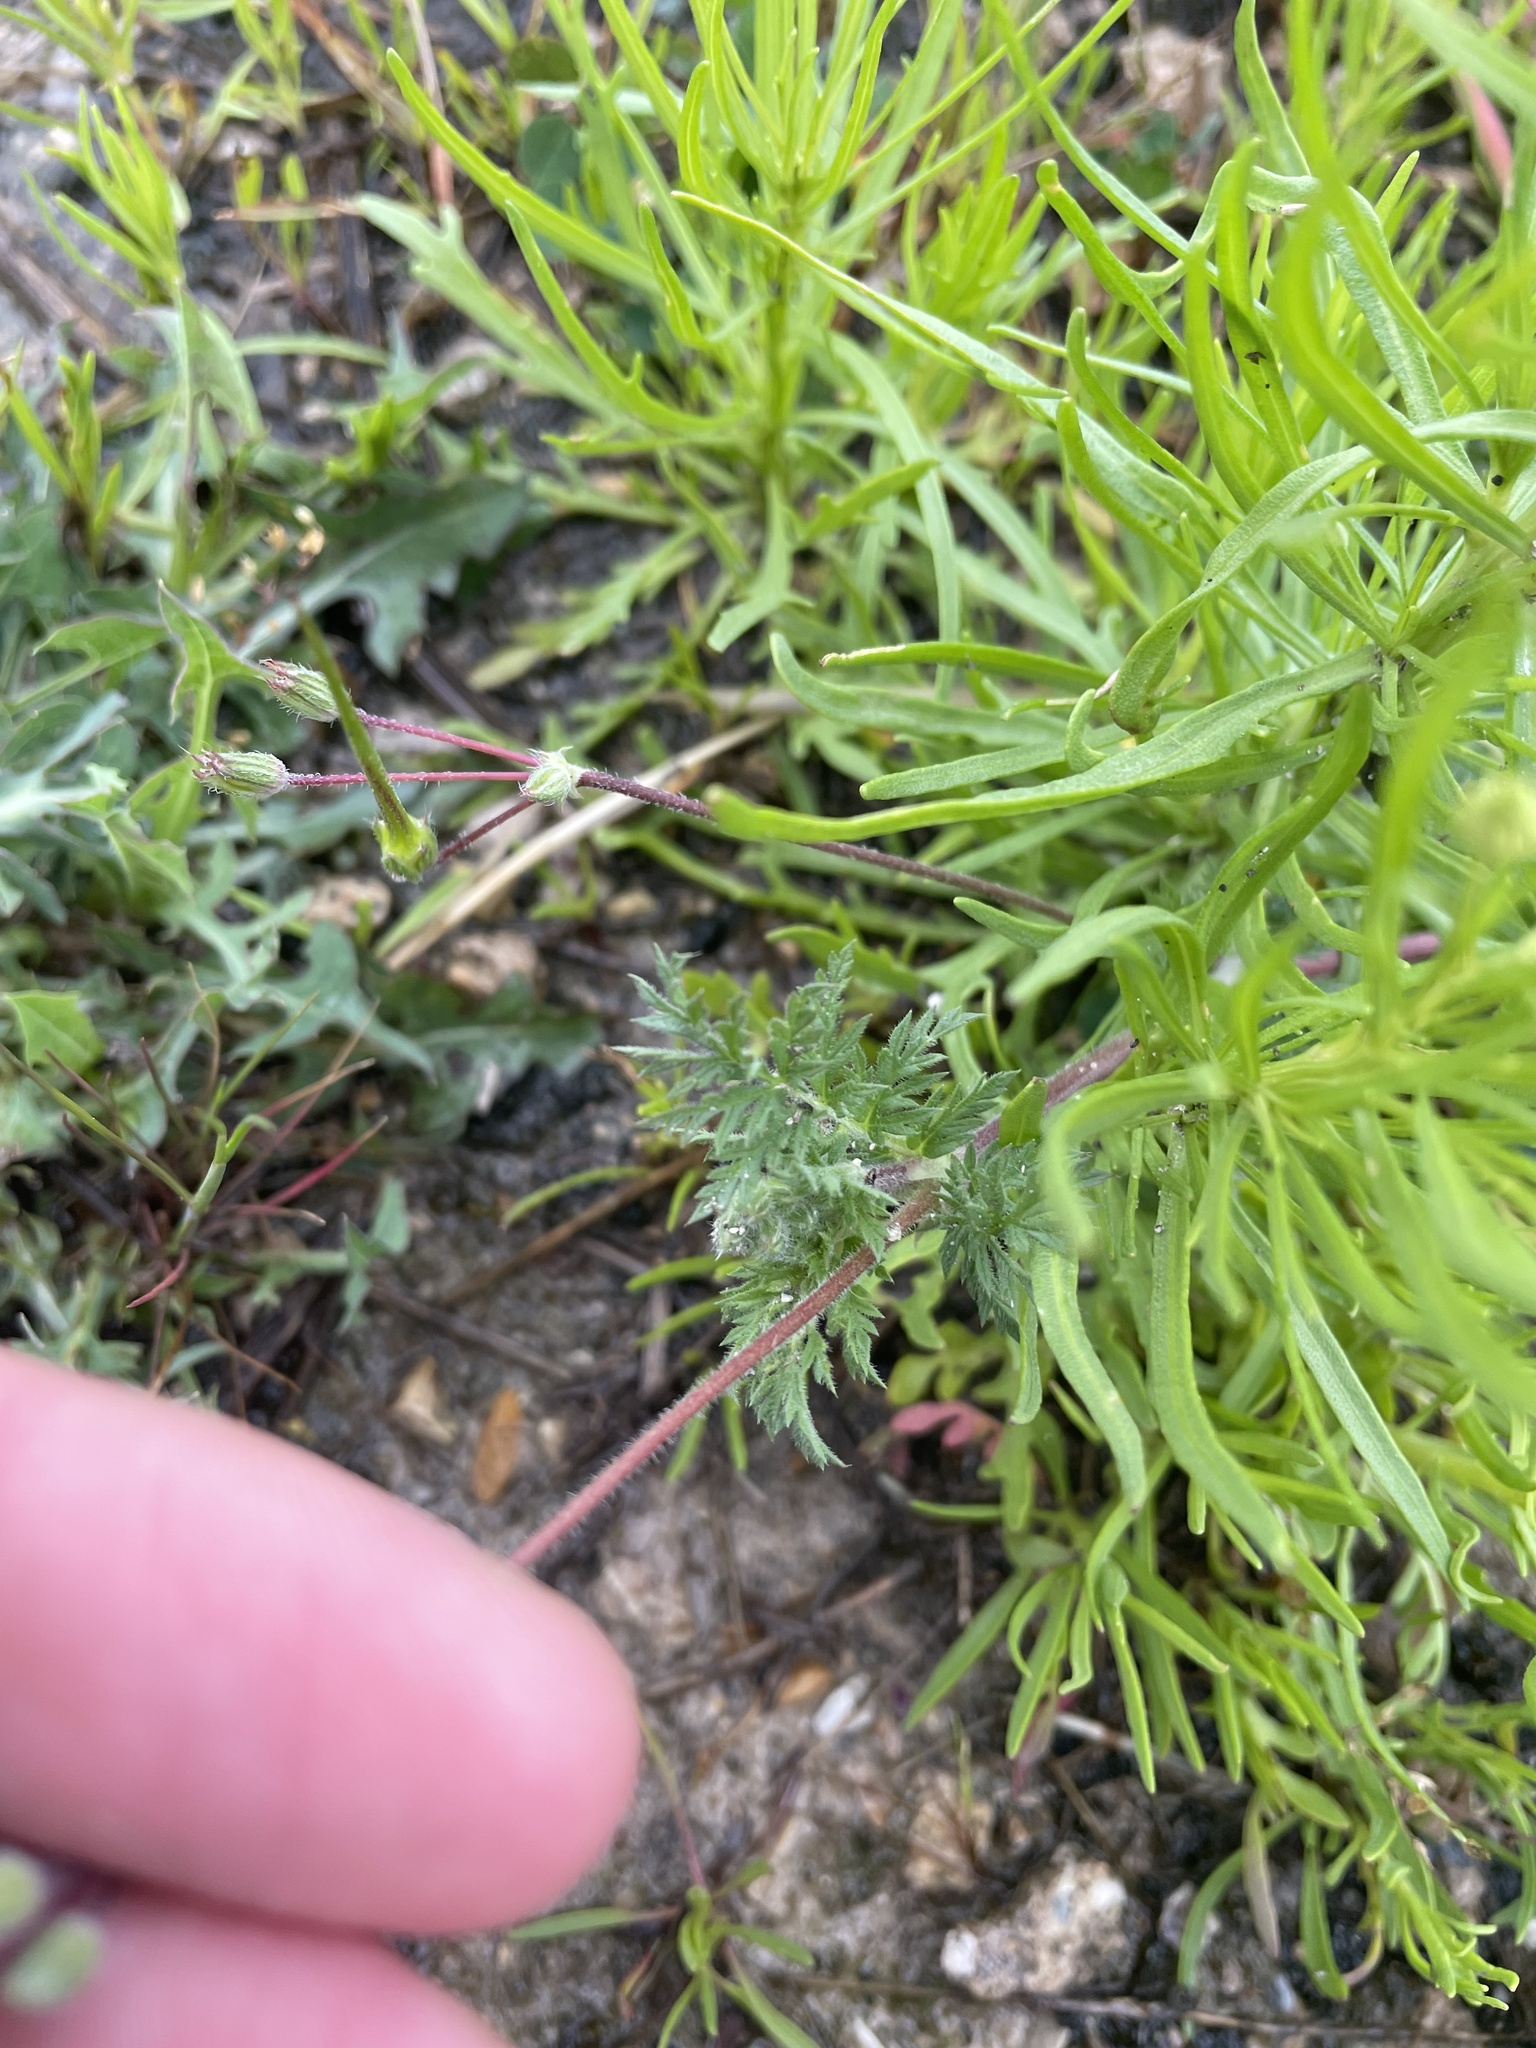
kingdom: Plantae
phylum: Tracheophyta
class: Magnoliopsida
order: Geraniales
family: Geraniaceae
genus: Erodium
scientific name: Erodium cicutarium
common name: Common stork's-bill
